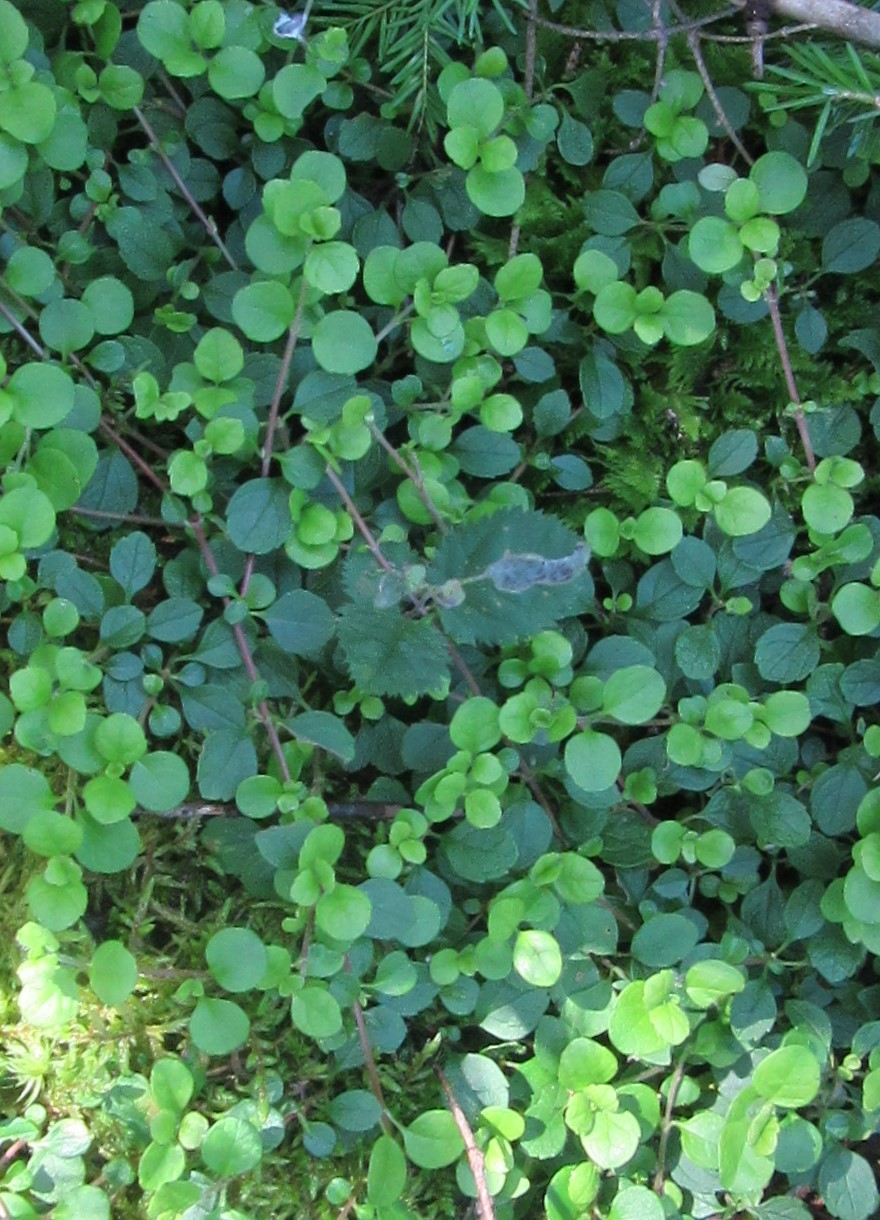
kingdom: Plantae
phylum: Tracheophyta
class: Magnoliopsida
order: Dipsacales
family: Caprifoliaceae
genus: Linnaea
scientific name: Linnaea borealis
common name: Twinflower
